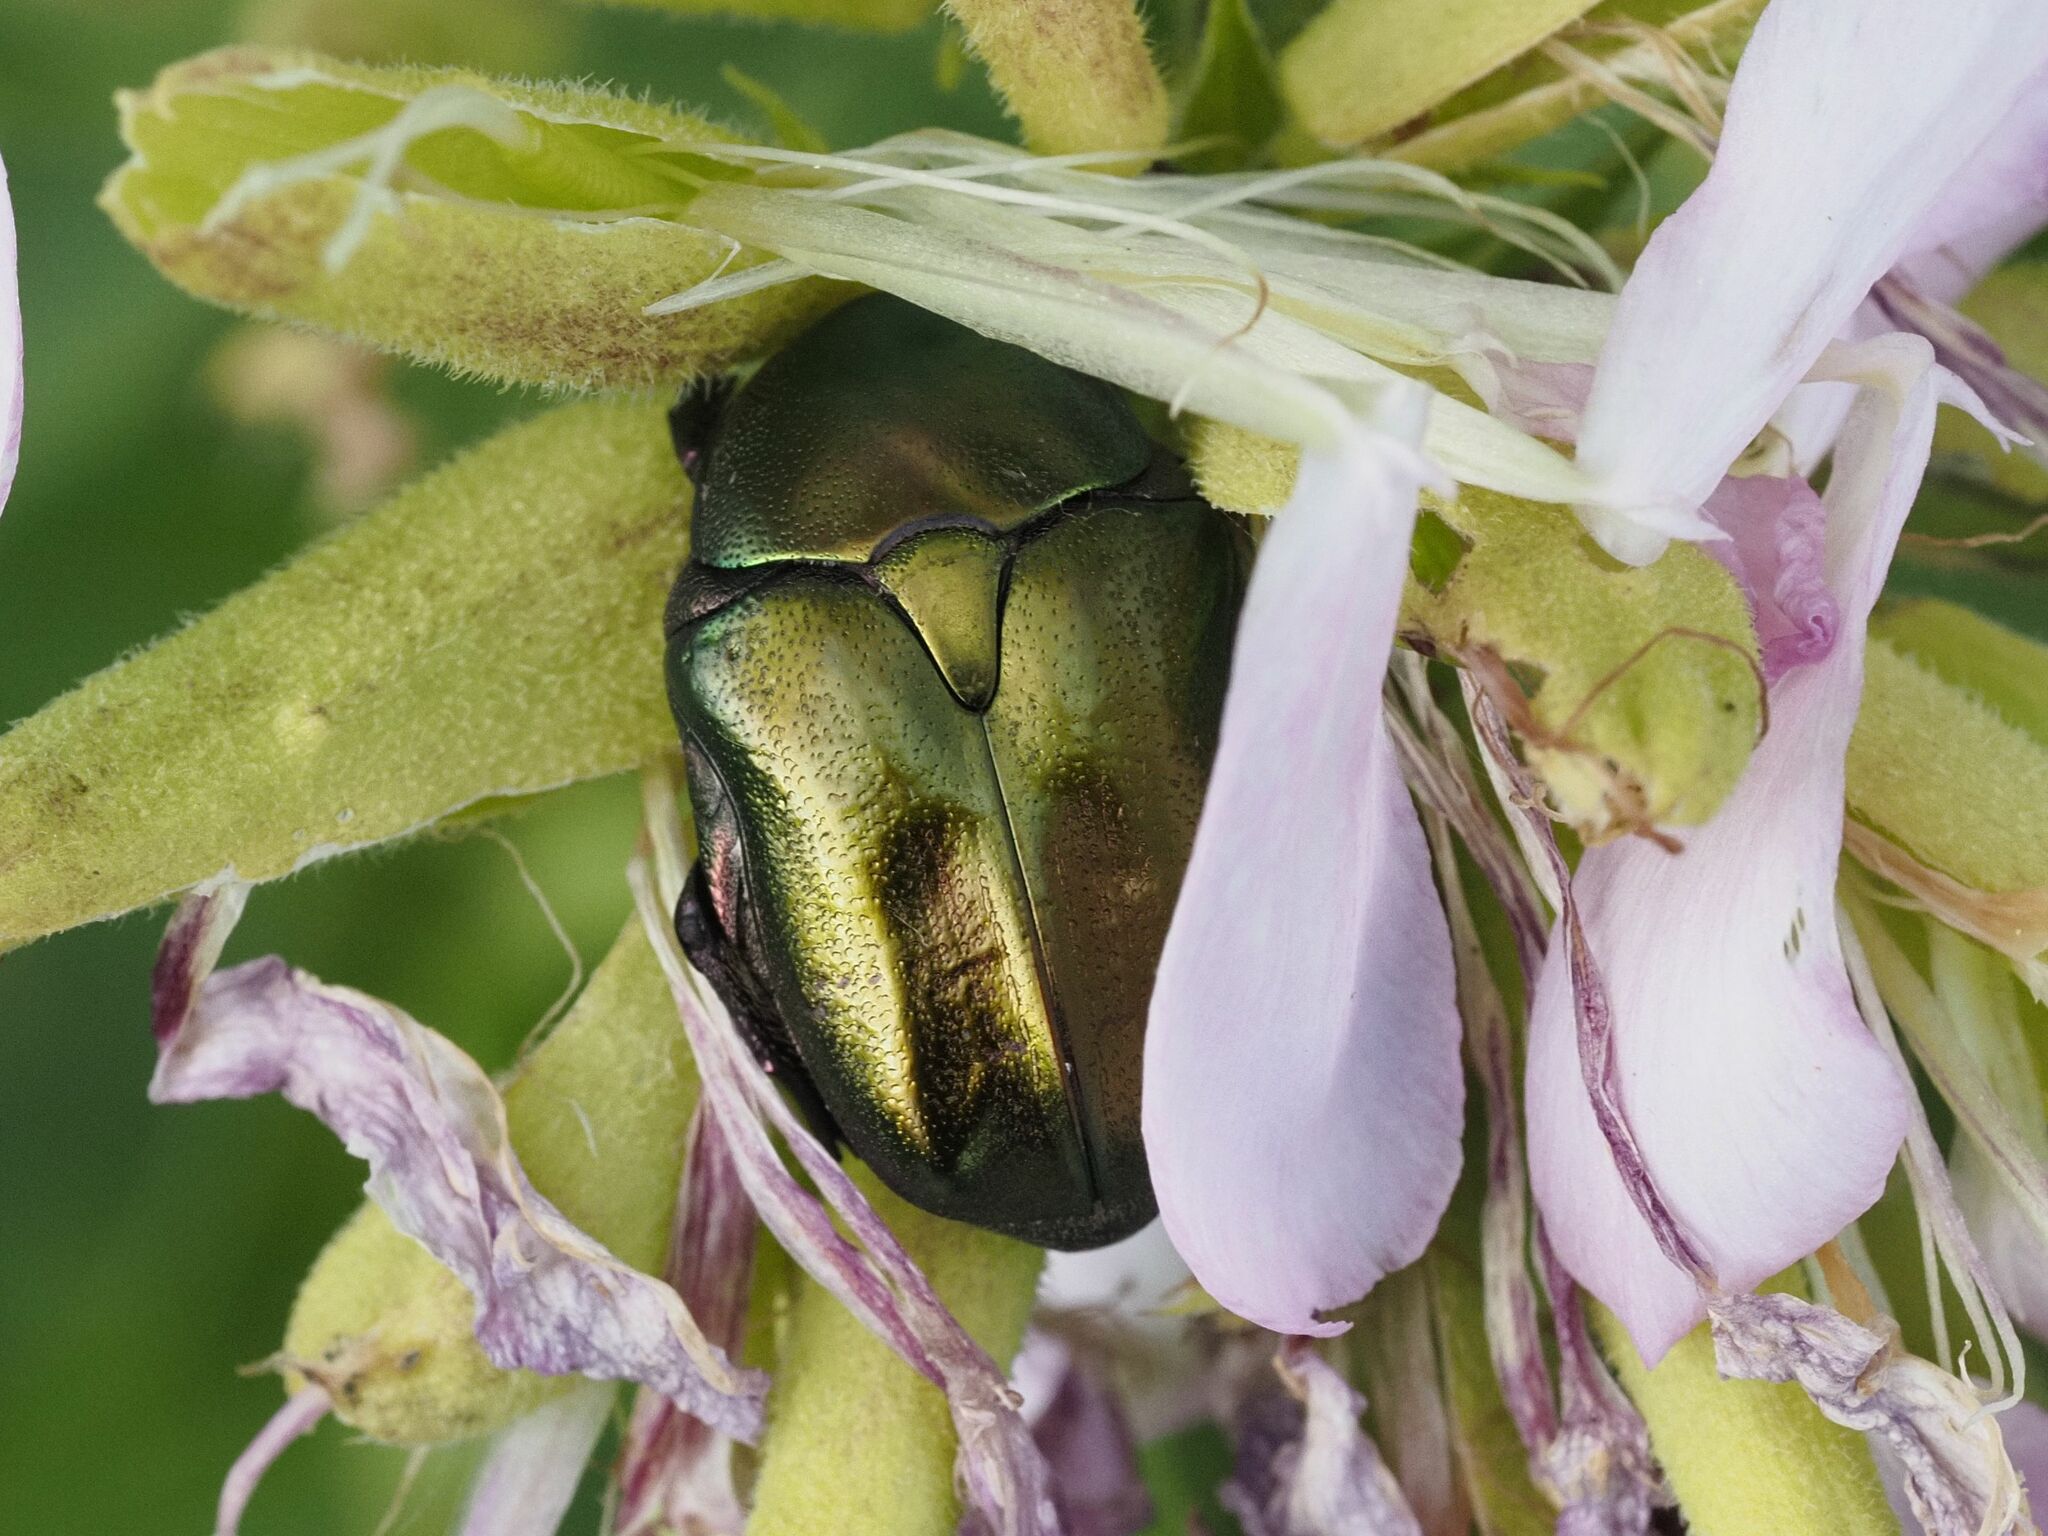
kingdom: Animalia
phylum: Arthropoda
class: Insecta
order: Coleoptera
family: Scarabaeidae
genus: Protaetia
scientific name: Protaetia cuprea
